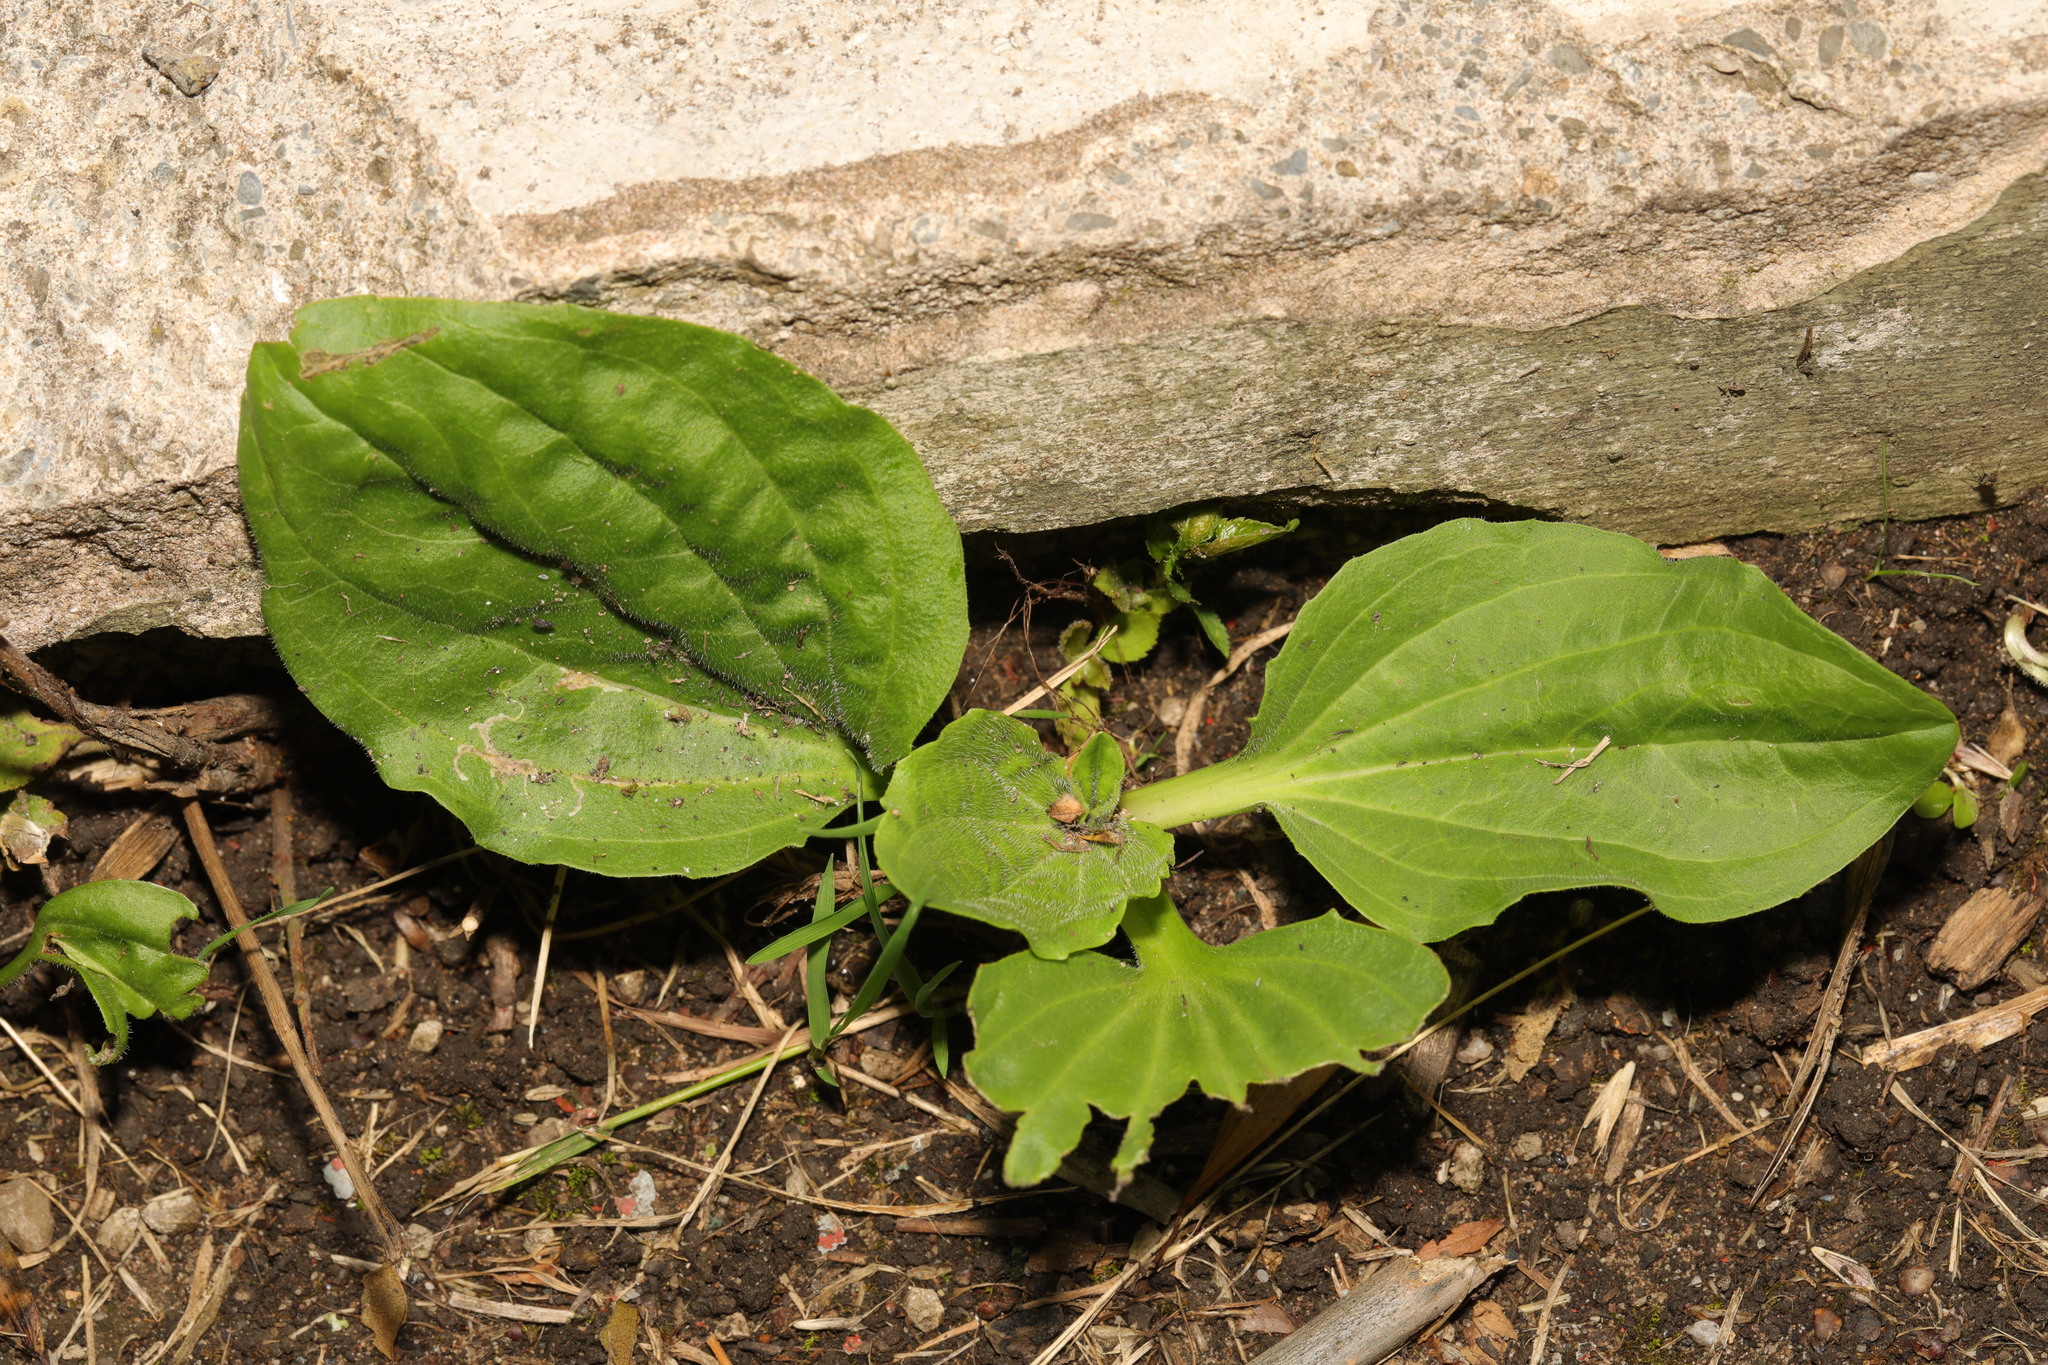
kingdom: Plantae
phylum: Tracheophyta
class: Magnoliopsida
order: Lamiales
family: Plantaginaceae
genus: Plantago
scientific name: Plantago major
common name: Common plantain
